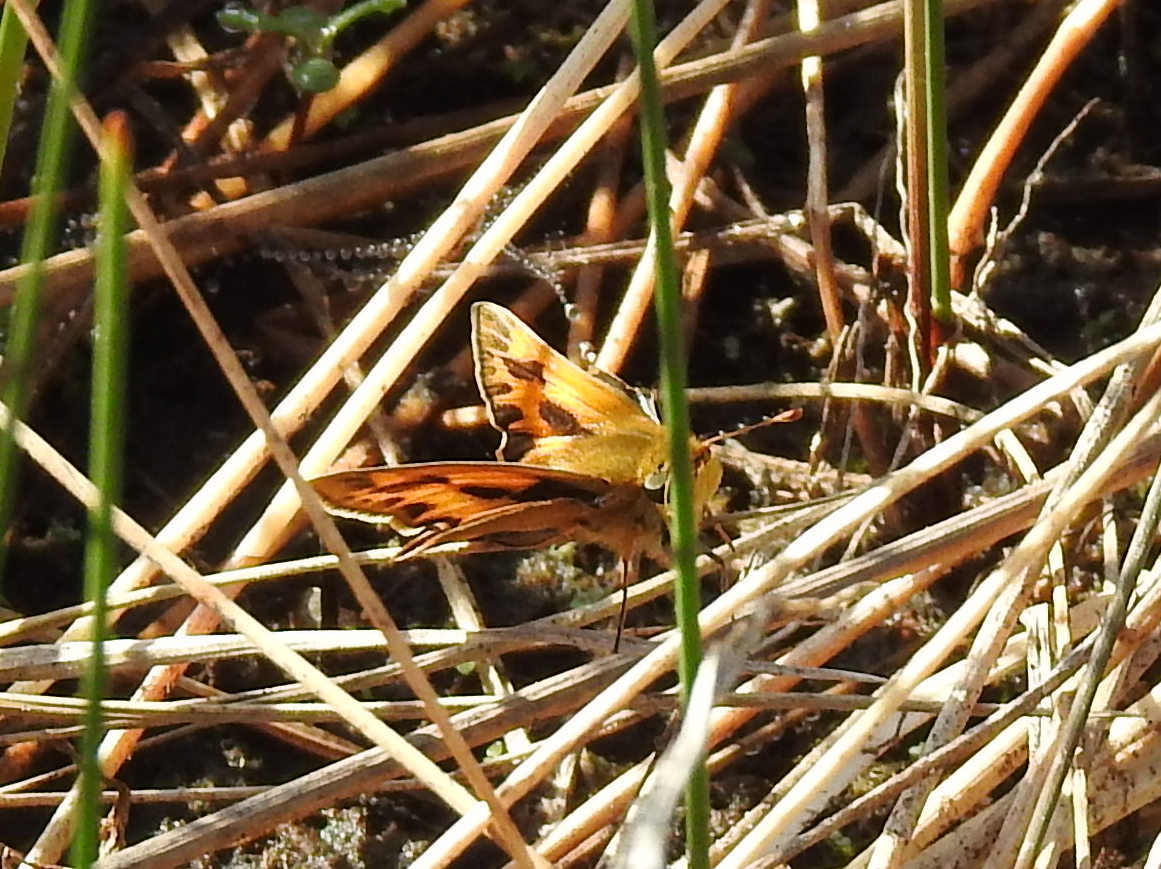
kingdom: Animalia
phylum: Arthropoda
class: Insecta
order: Lepidoptera
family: Hesperiidae
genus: Hylephila
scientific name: Hylephila phyleus
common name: Fiery skipper
